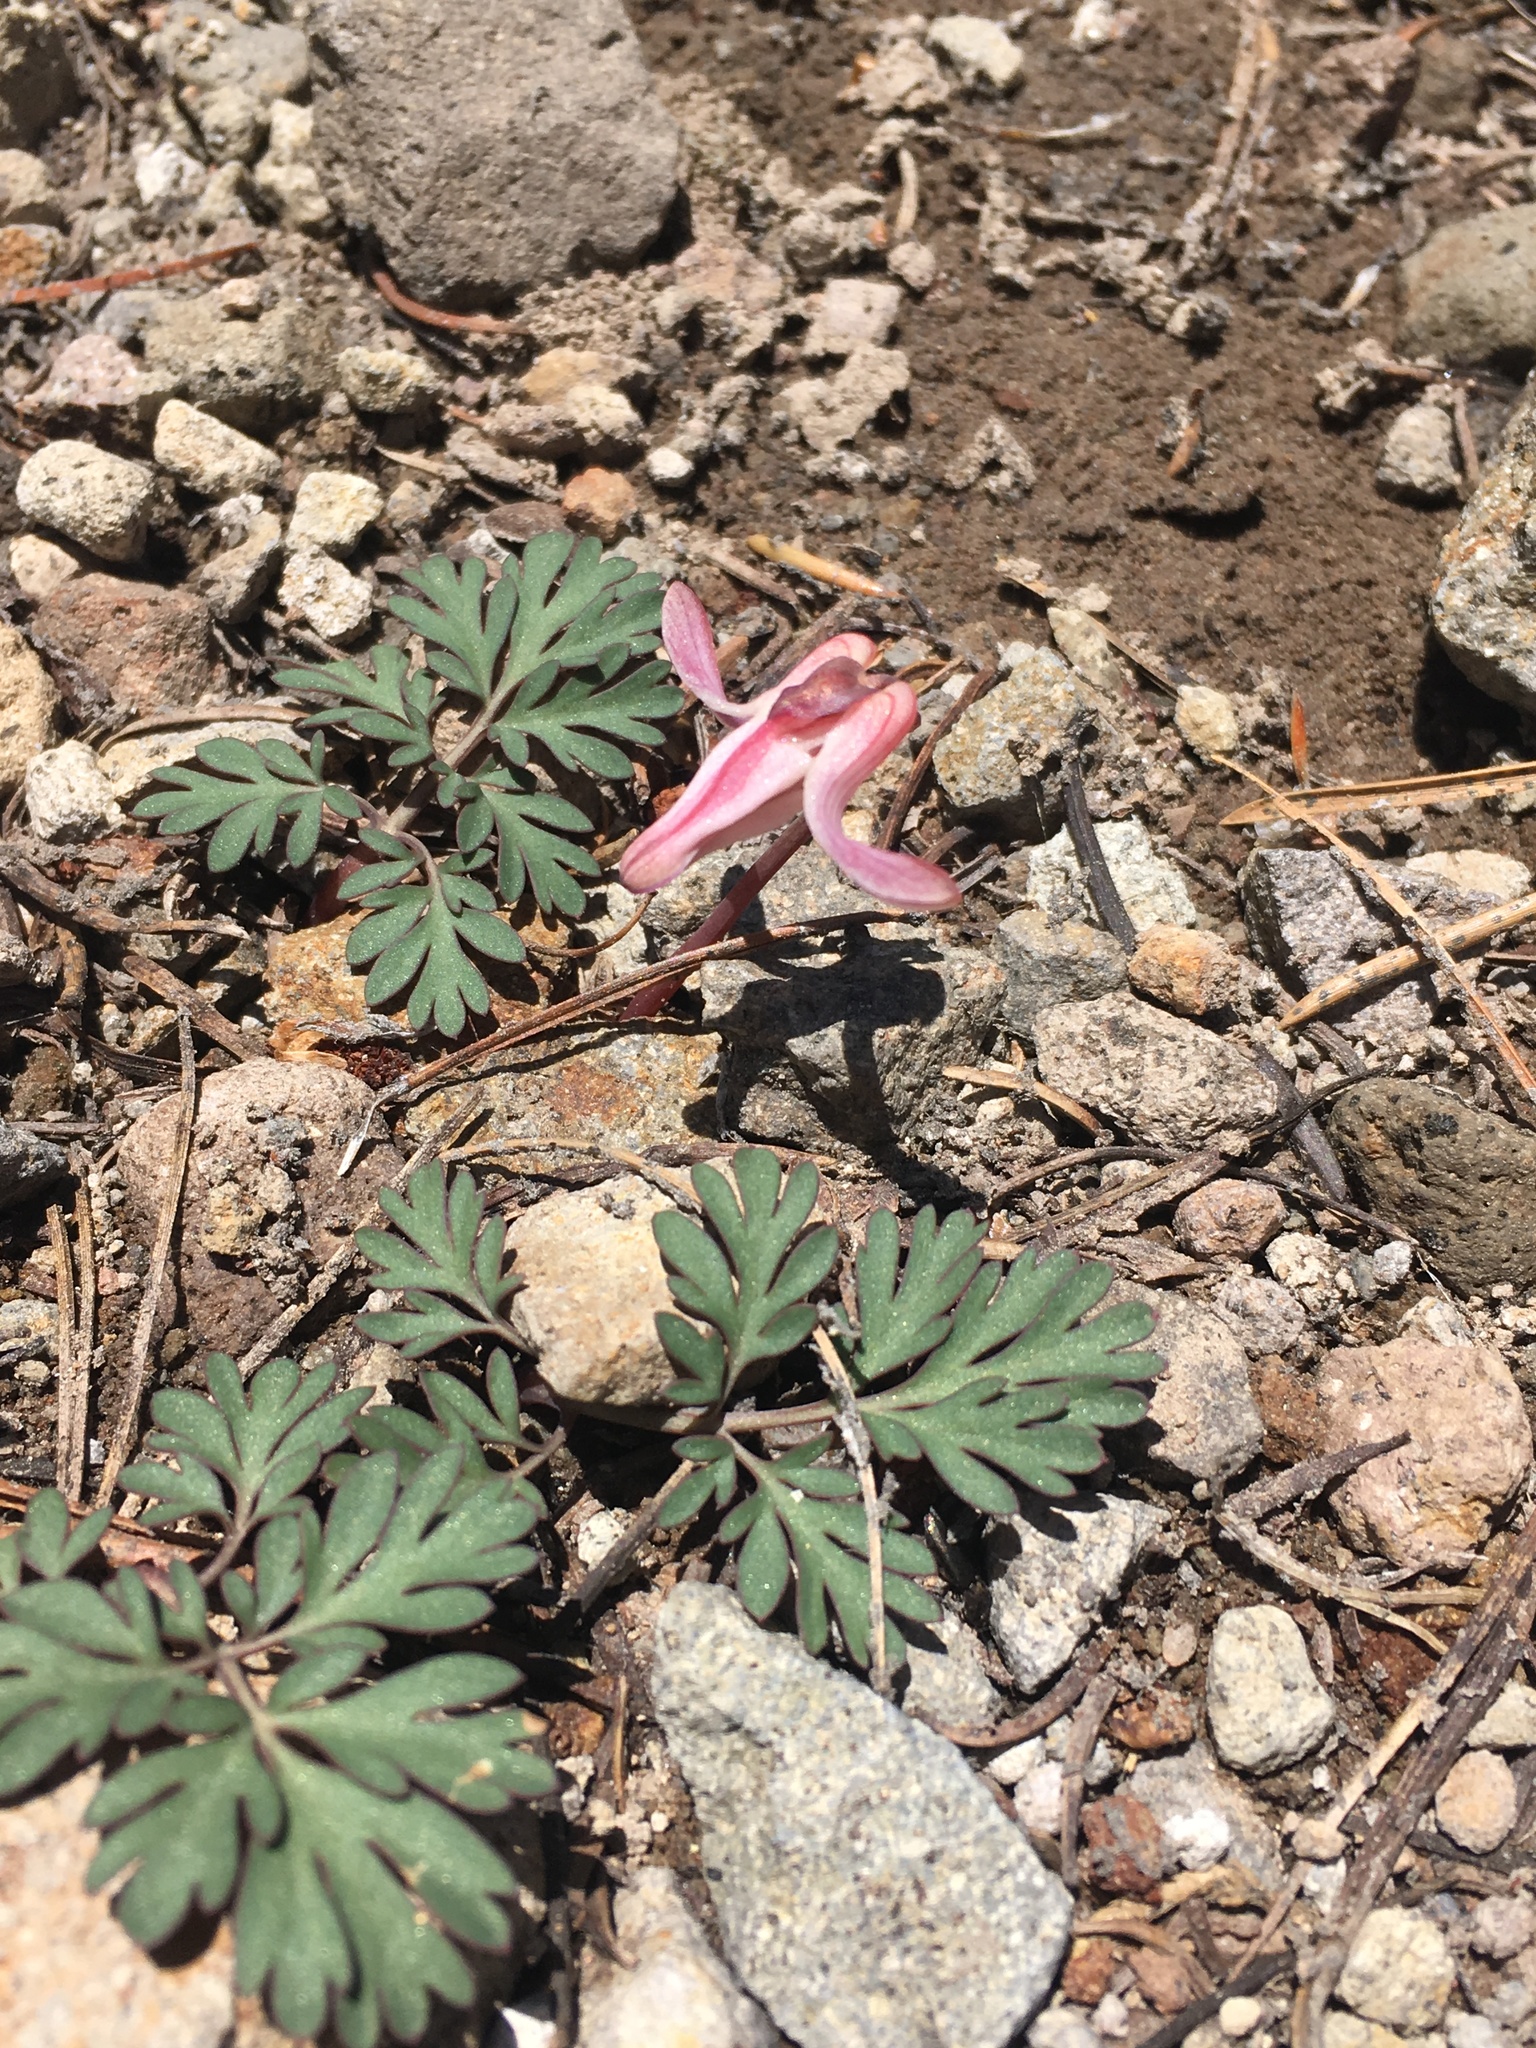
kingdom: Plantae
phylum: Tracheophyta
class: Magnoliopsida
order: Ranunculales
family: Papaveraceae
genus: Dicentra
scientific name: Dicentra uniflora
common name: Steer's-head
